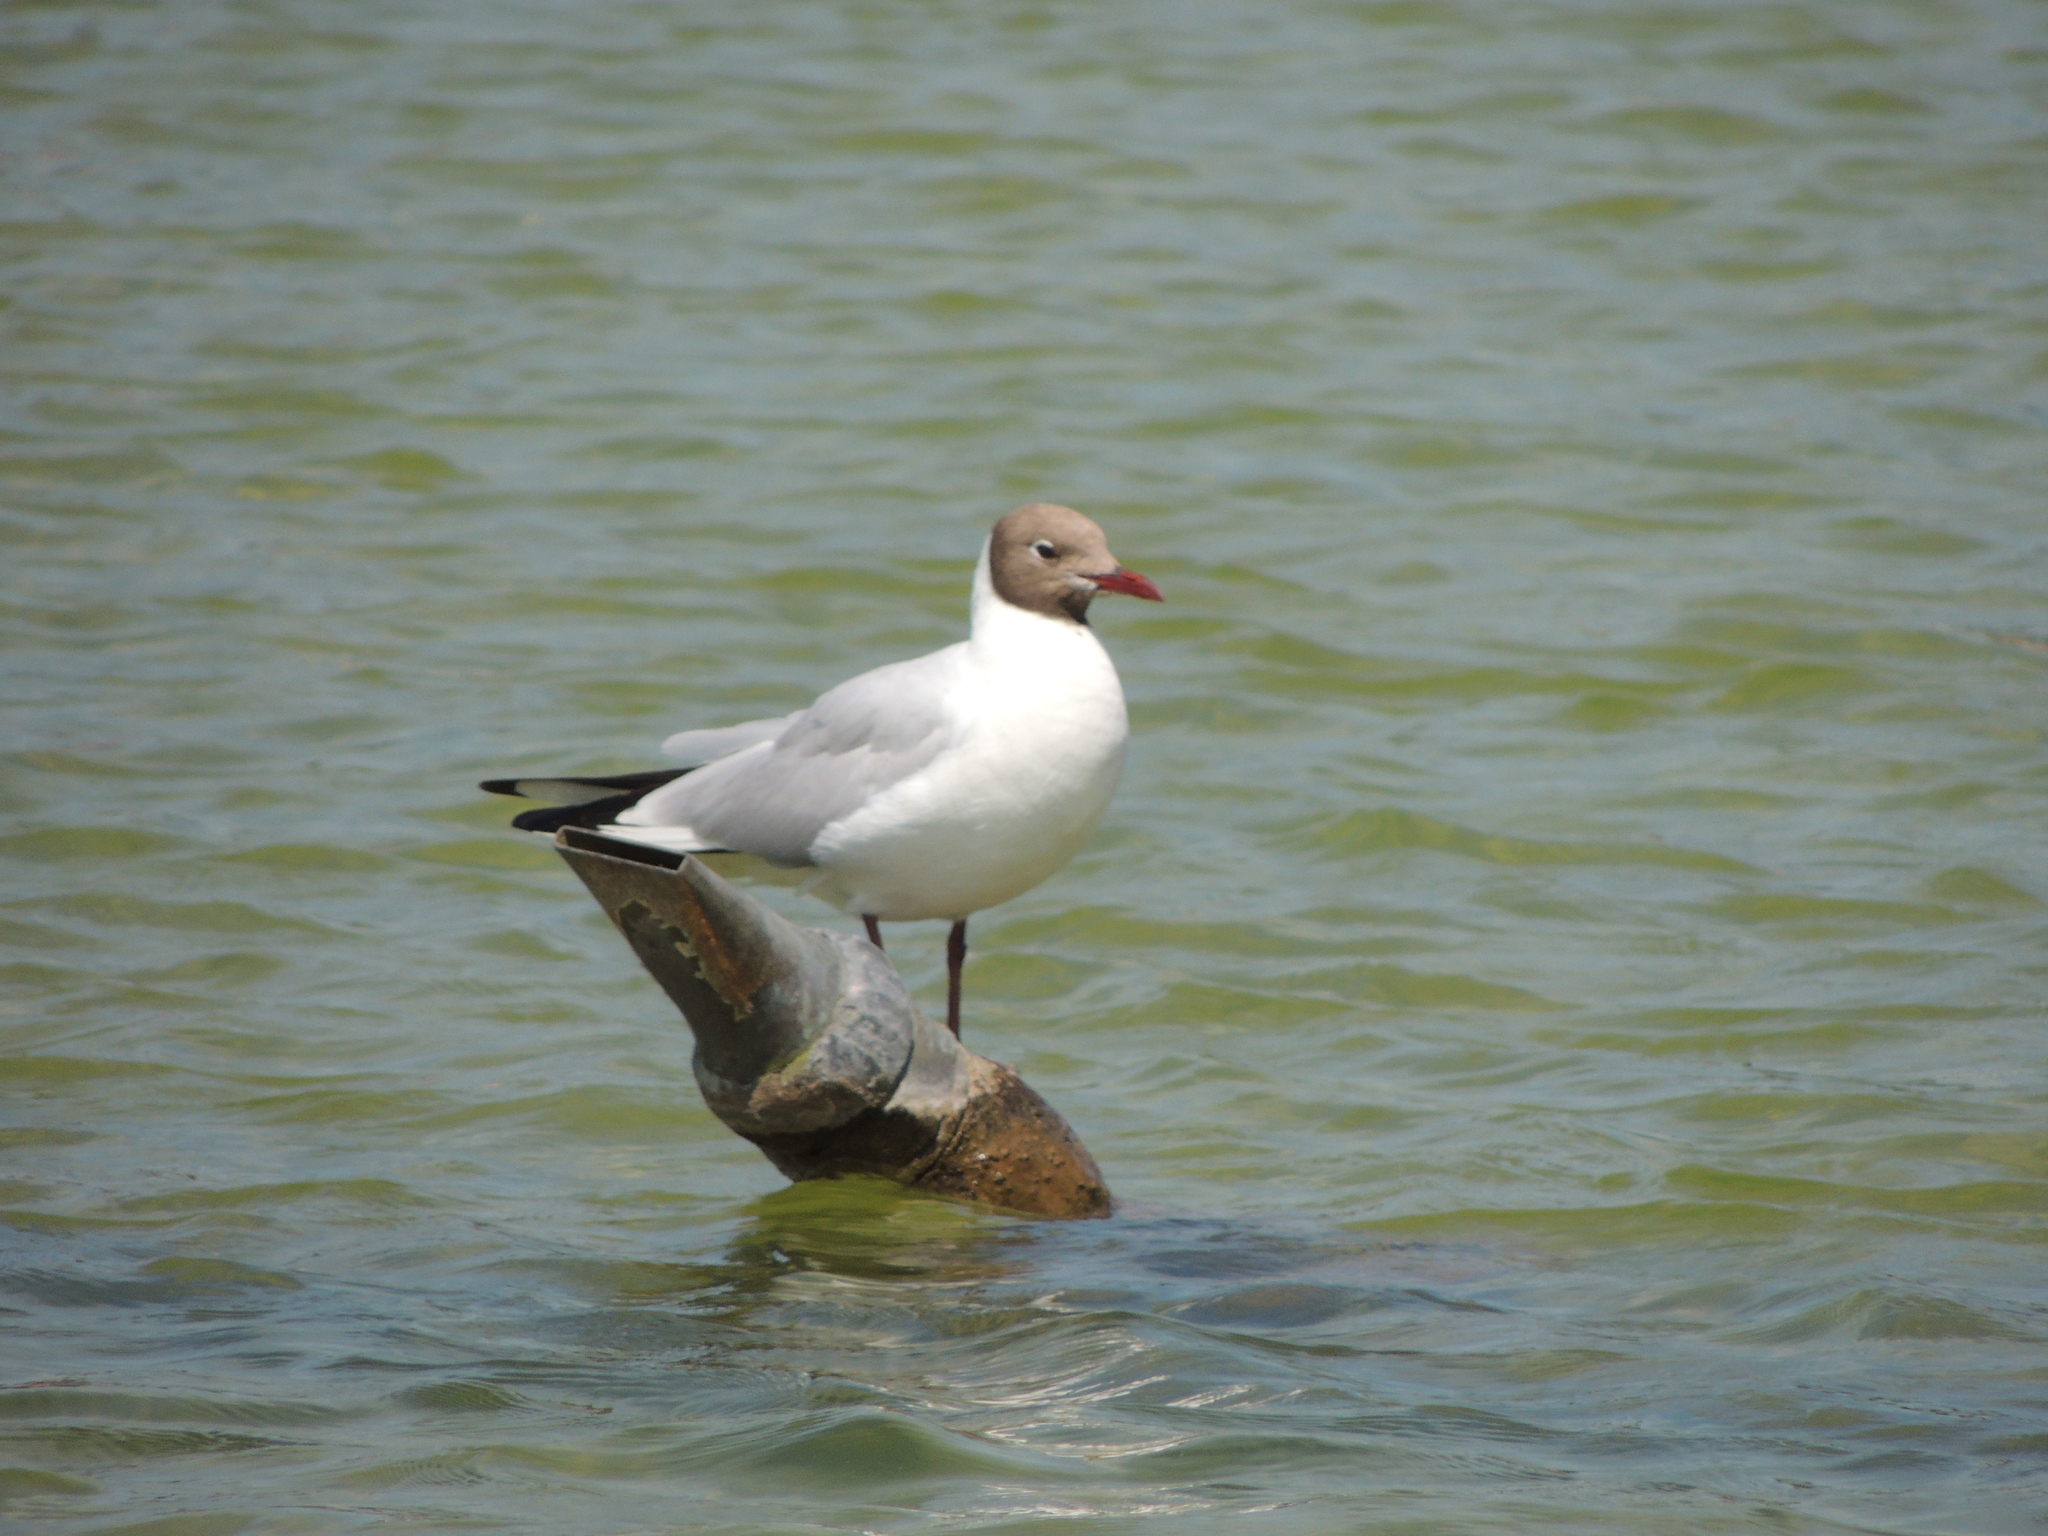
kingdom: Animalia
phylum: Chordata
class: Aves
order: Charadriiformes
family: Laridae
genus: Chroicocephalus
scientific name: Chroicocephalus ridibundus
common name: Black-headed gull
